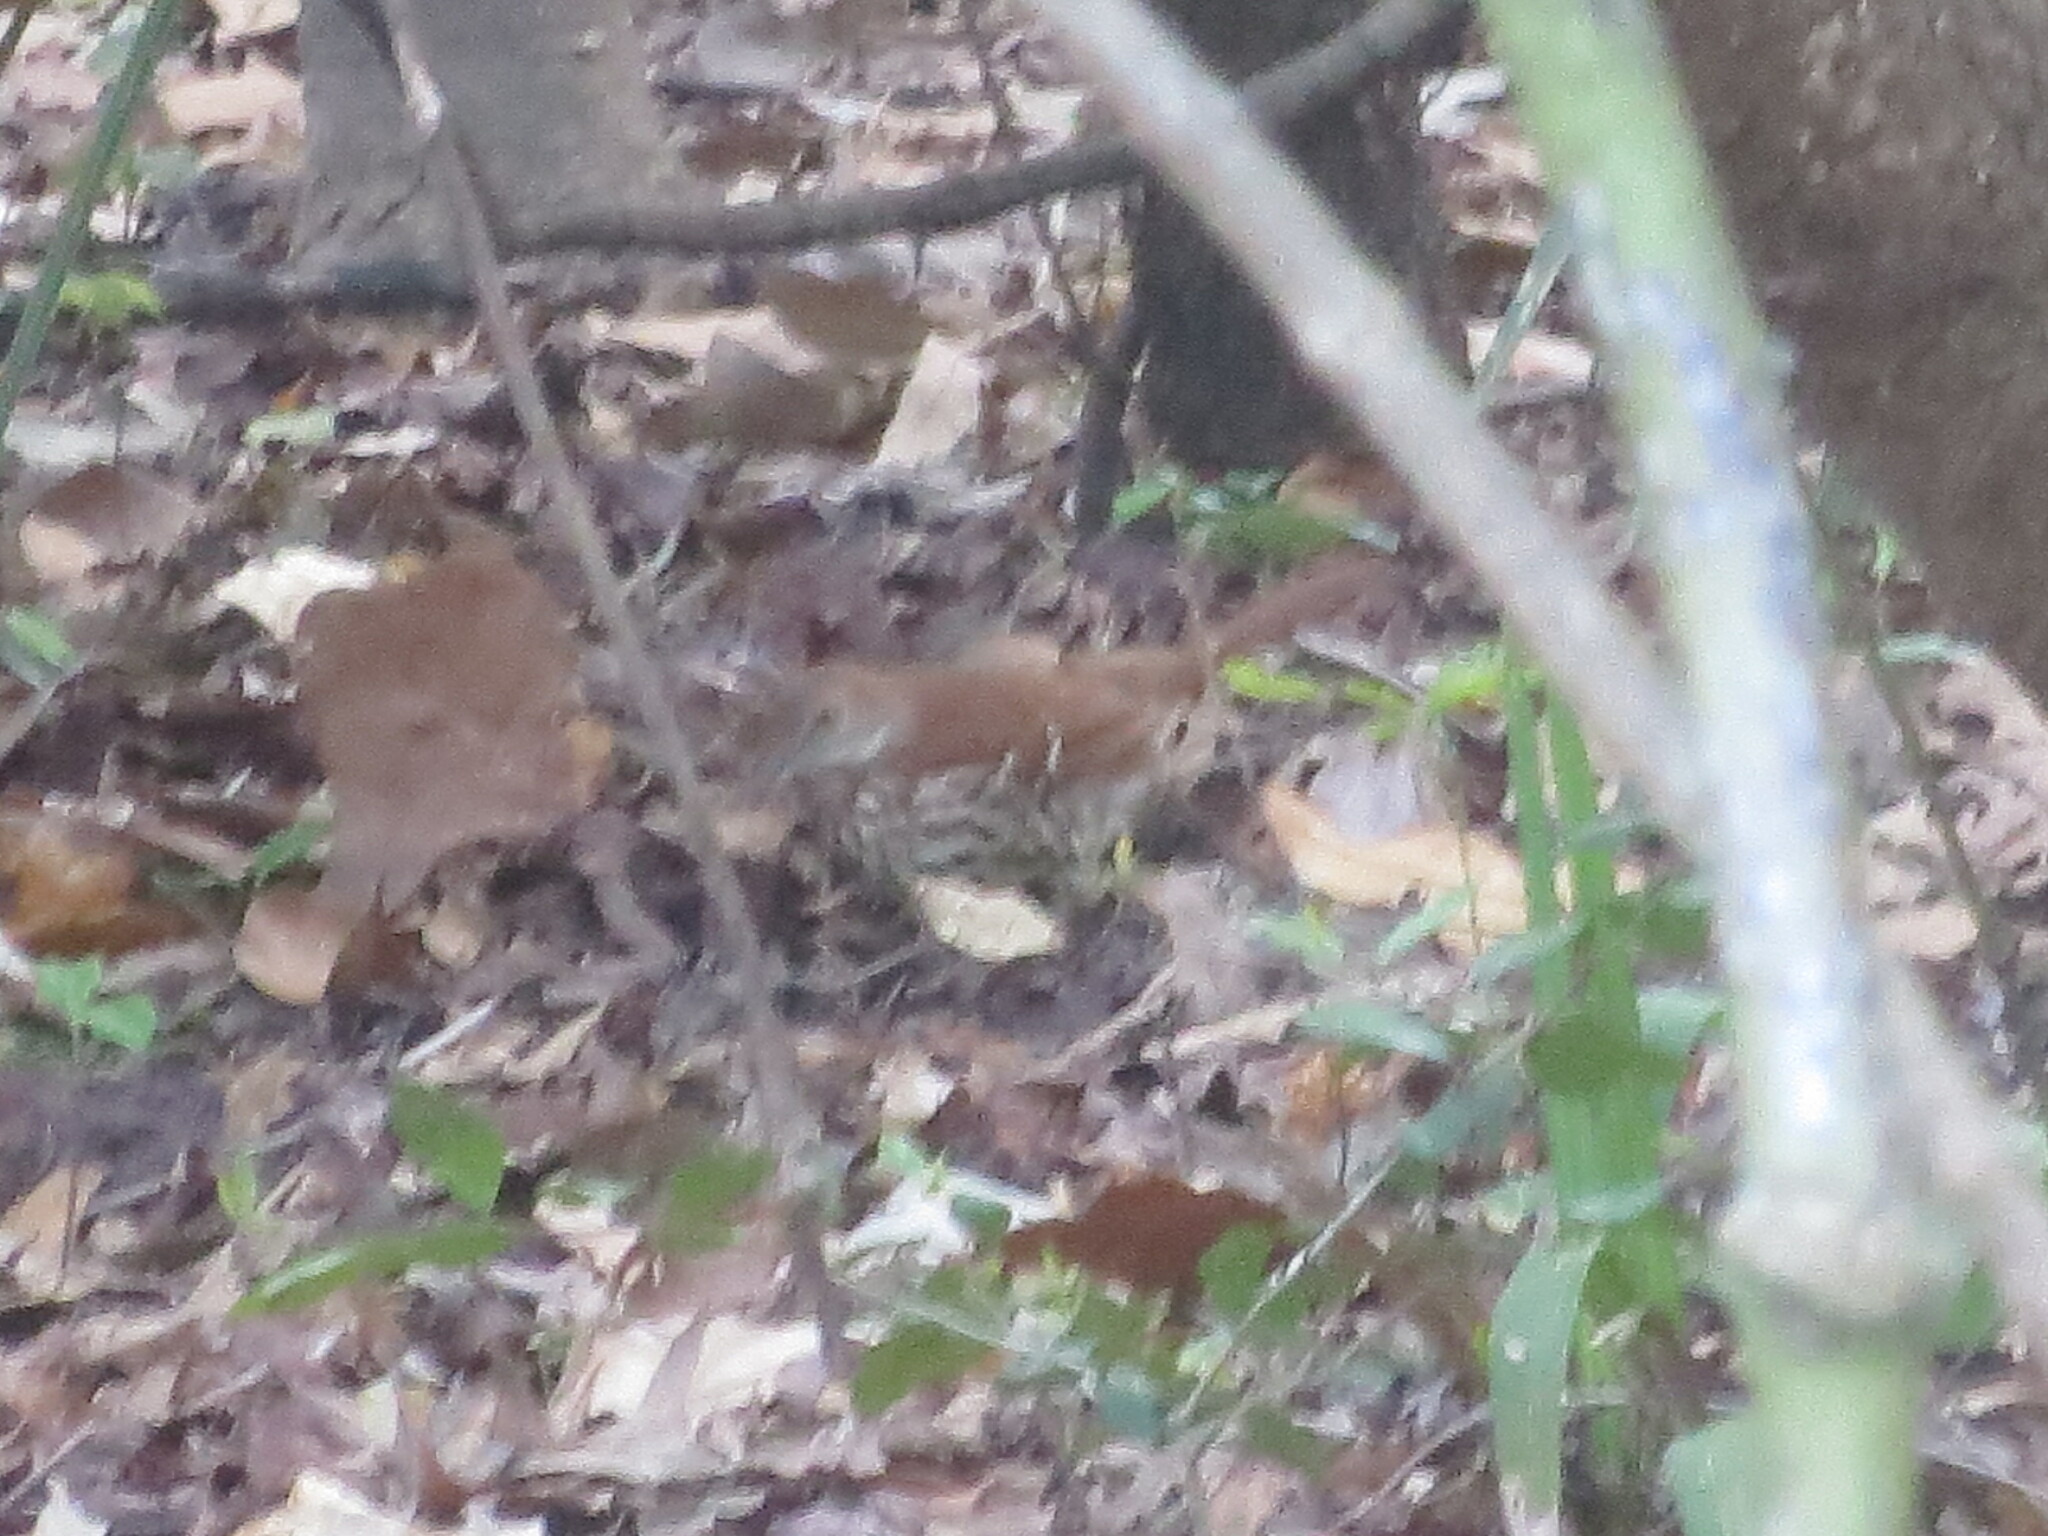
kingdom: Animalia
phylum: Chordata
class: Aves
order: Passeriformes
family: Mimidae
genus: Toxostoma
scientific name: Toxostoma rufum
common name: Brown thrasher
